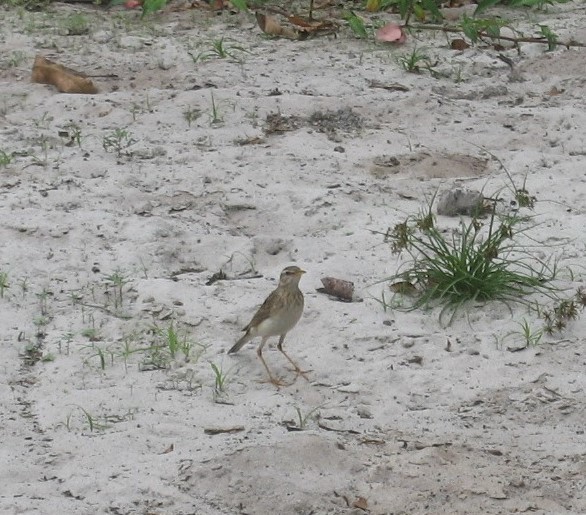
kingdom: Animalia
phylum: Chordata
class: Aves
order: Passeriformes
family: Motacillidae
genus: Anthus
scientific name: Anthus pallidiventris
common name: Long-legged pipit
